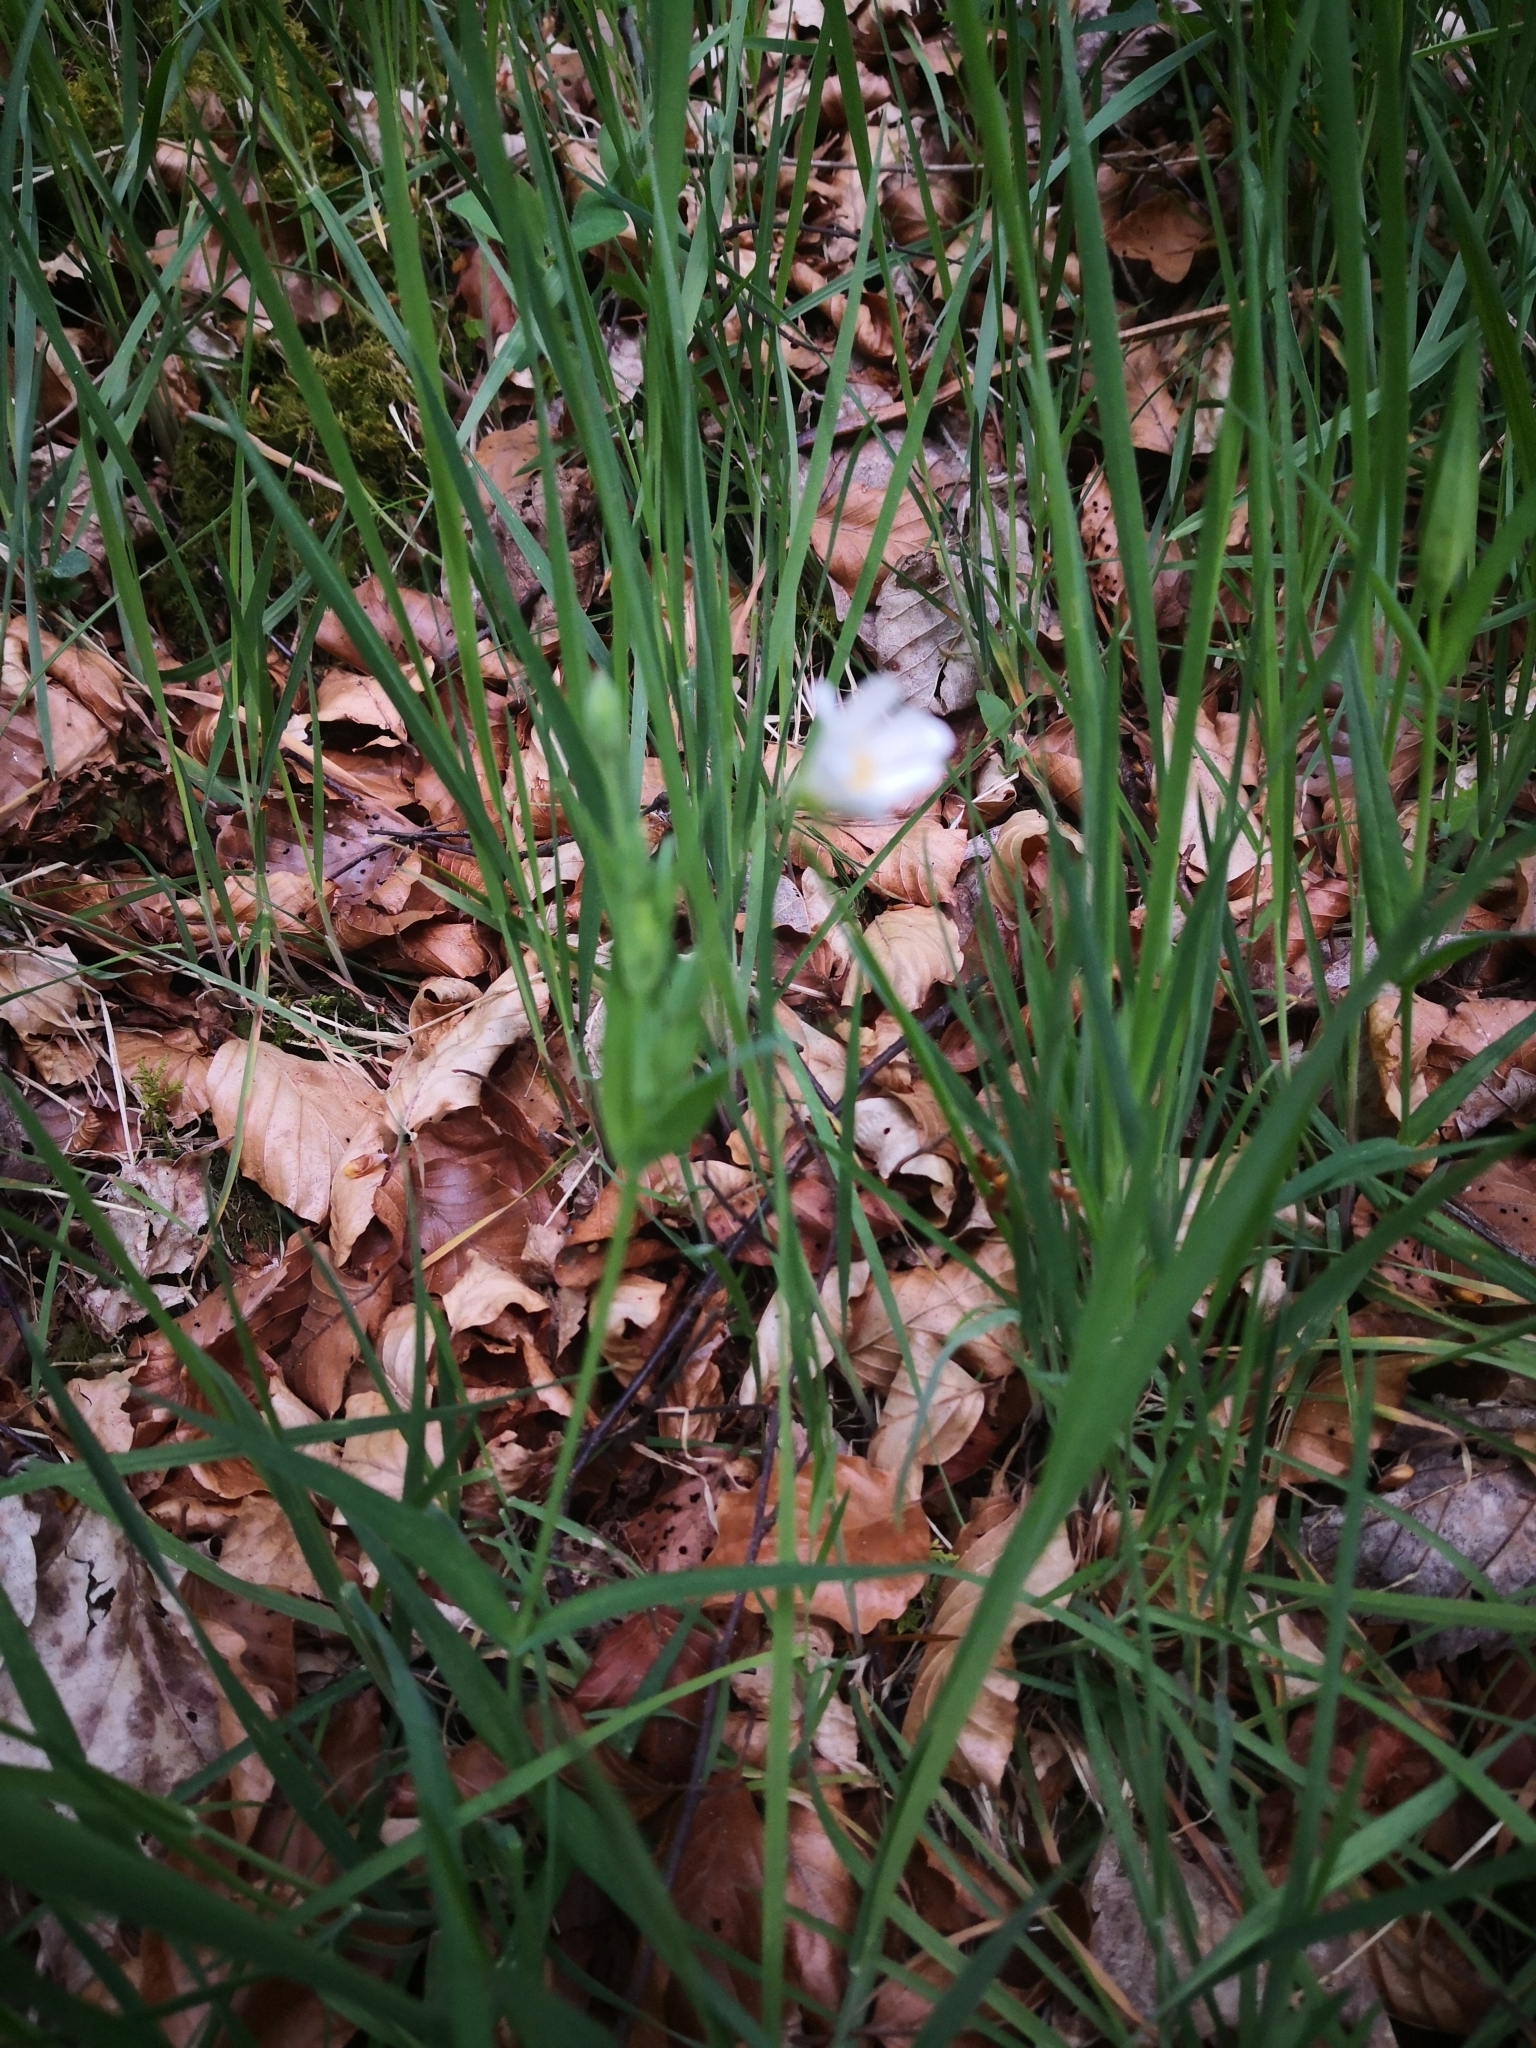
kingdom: Plantae
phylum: Tracheophyta
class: Magnoliopsida
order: Caryophyllales
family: Caryophyllaceae
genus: Rabelera
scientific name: Rabelera holostea
